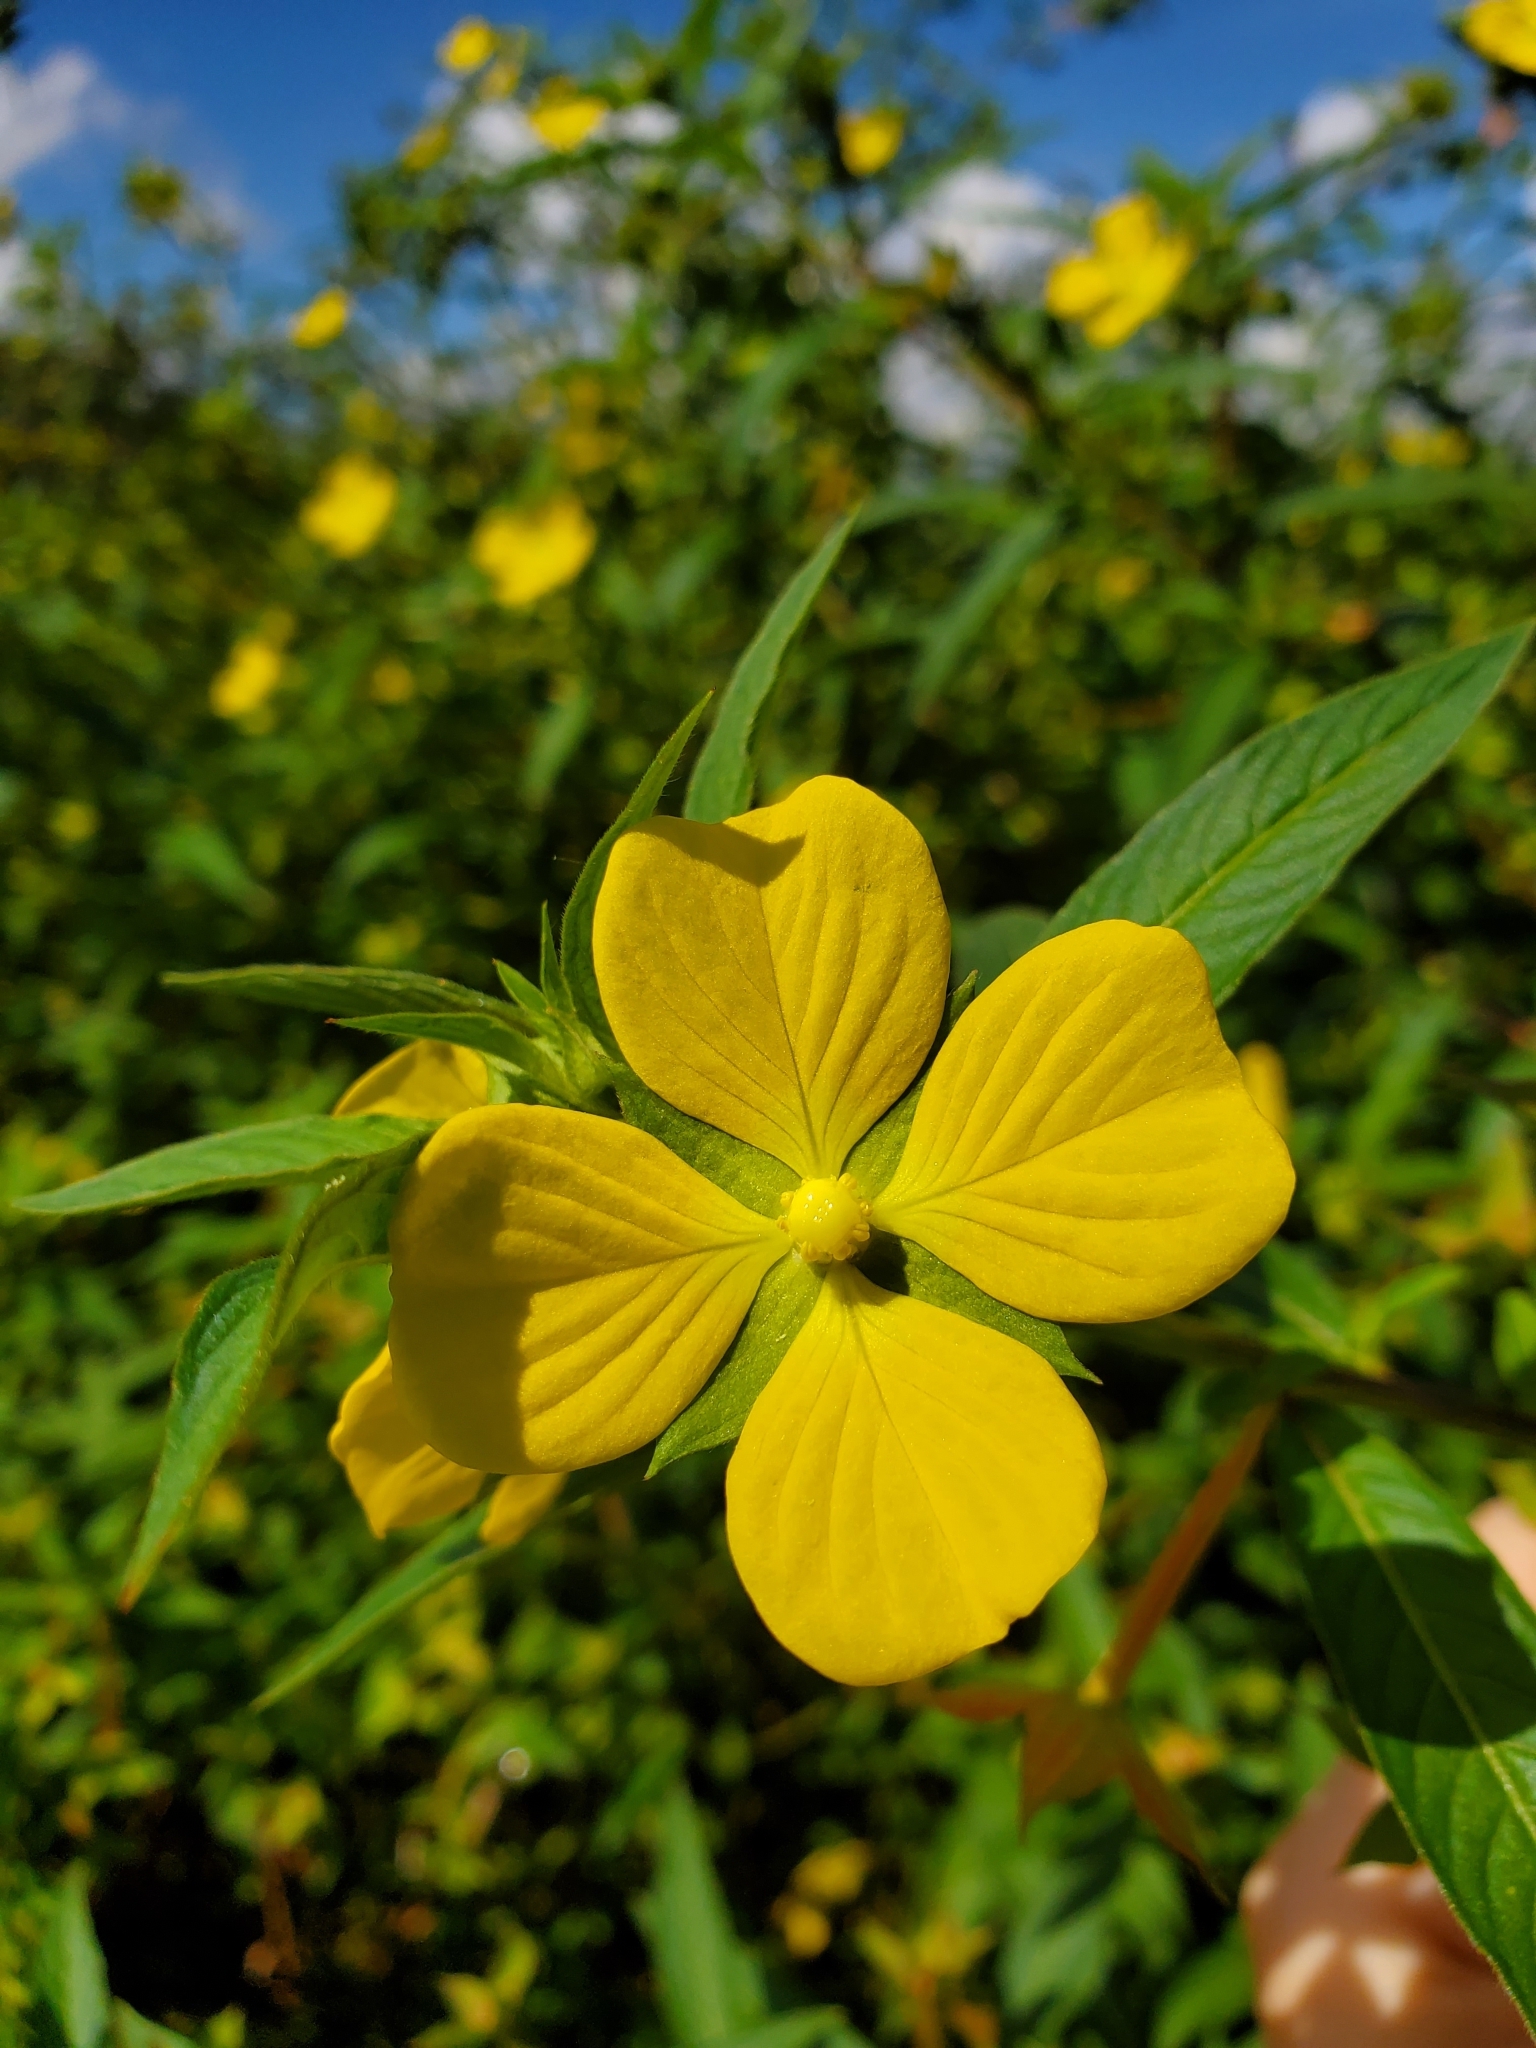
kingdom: Plantae
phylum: Tracheophyta
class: Magnoliopsida
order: Myrtales
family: Onagraceae
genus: Ludwigia
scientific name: Ludwigia octovalvis
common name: Water-primrose
